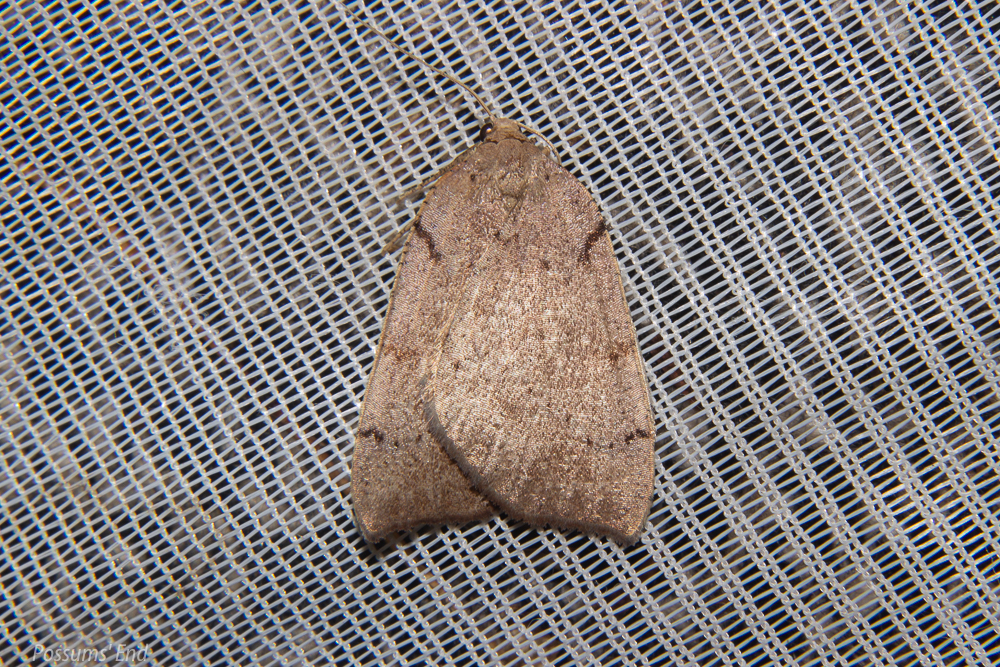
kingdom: Animalia
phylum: Arthropoda
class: Insecta
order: Lepidoptera
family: Geometridae
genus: Sestra
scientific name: Sestra humeraria
